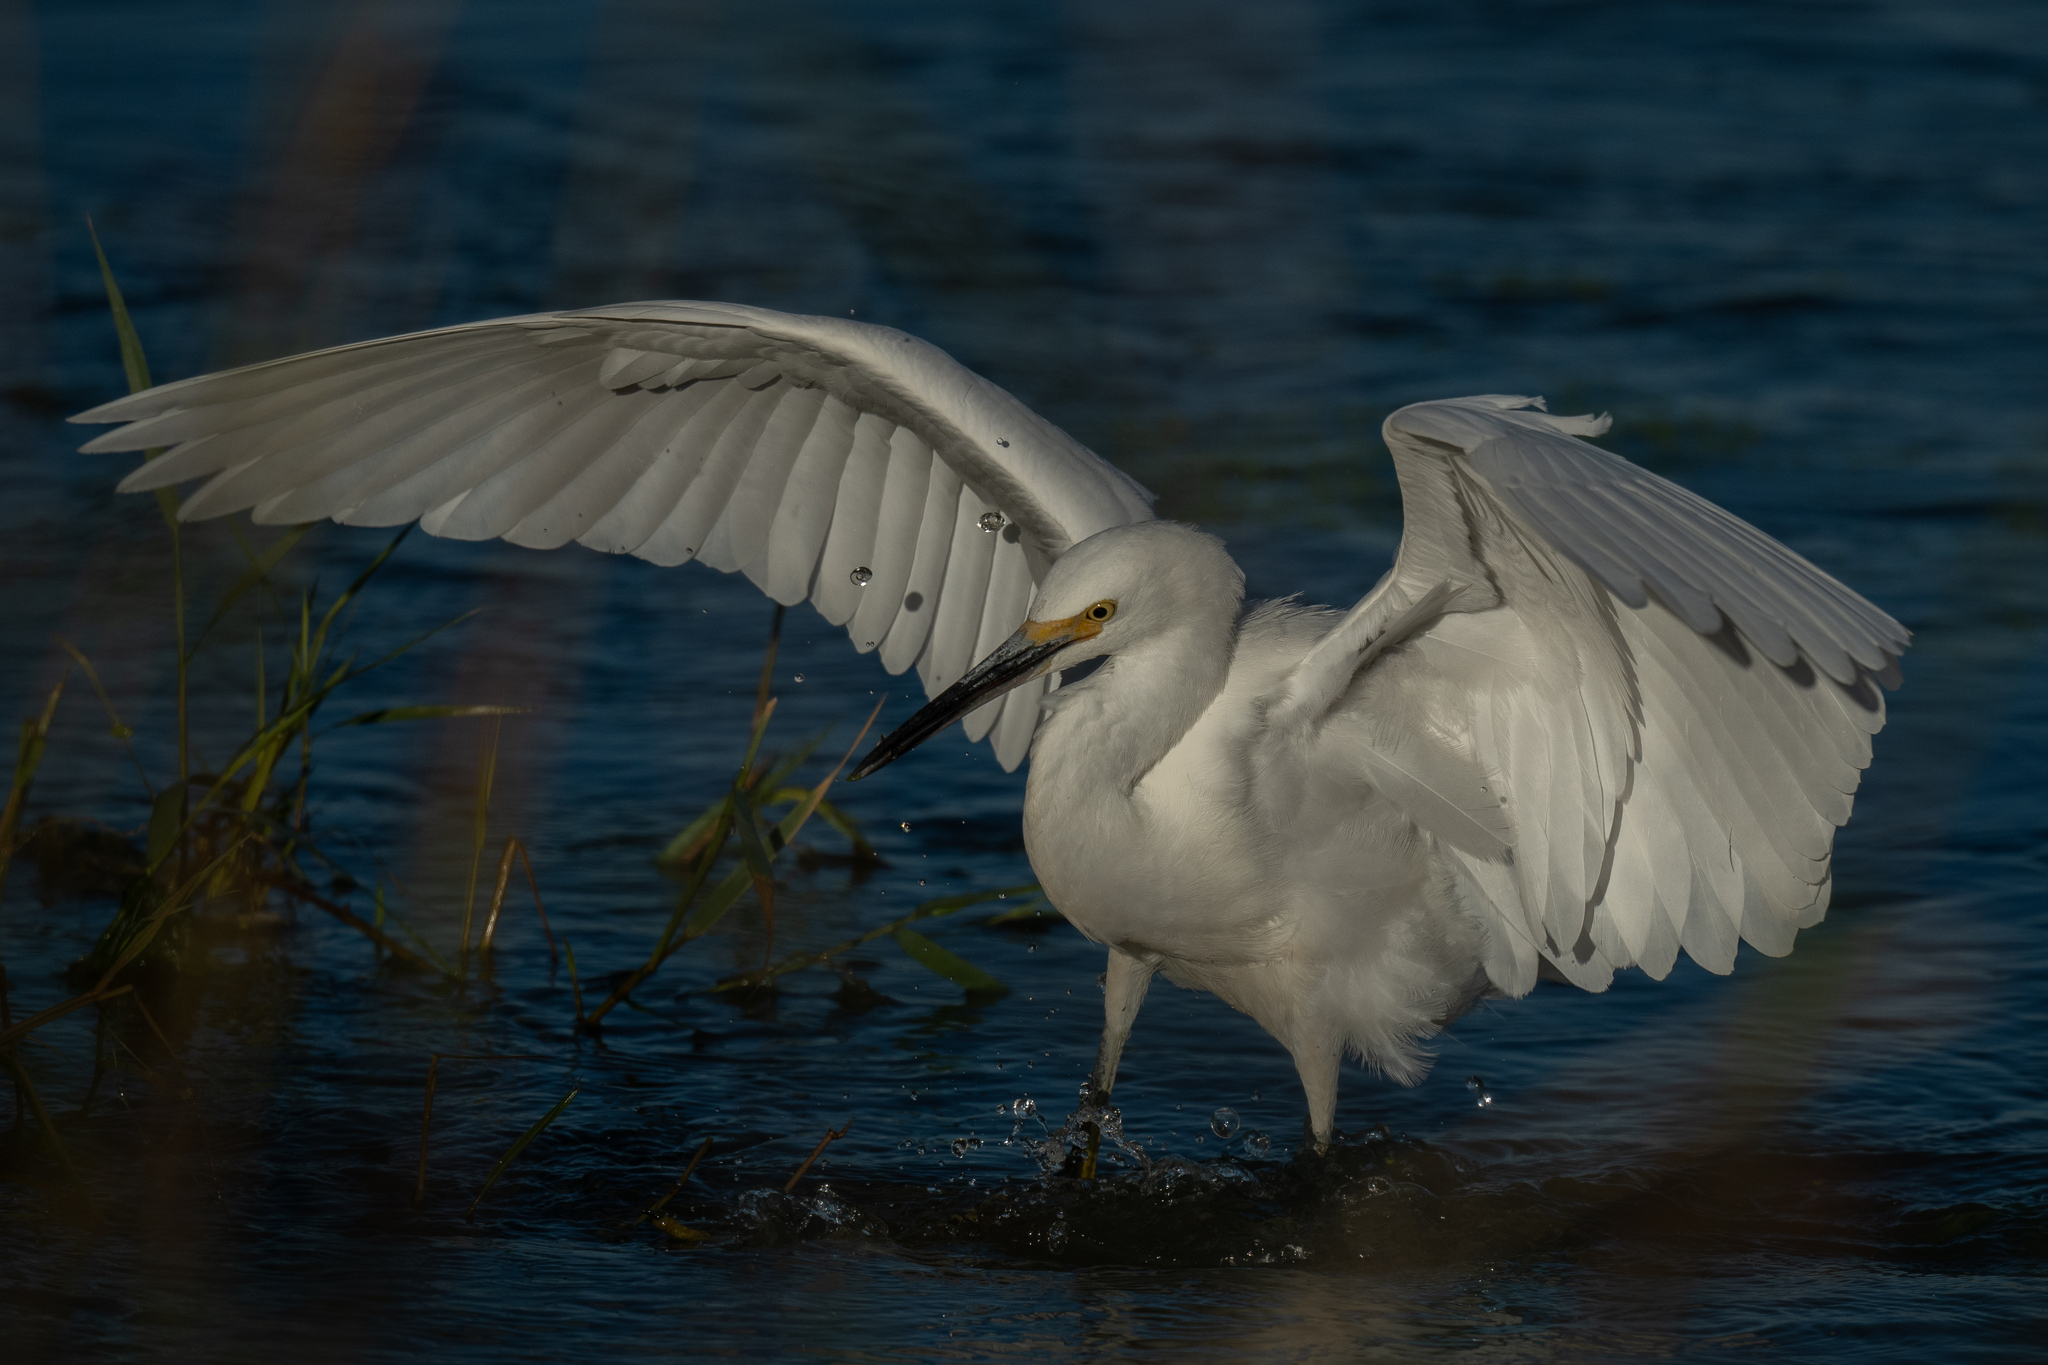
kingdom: Animalia
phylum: Chordata
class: Aves
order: Pelecaniformes
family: Ardeidae
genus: Egretta
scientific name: Egretta thula
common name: Snowy egret
